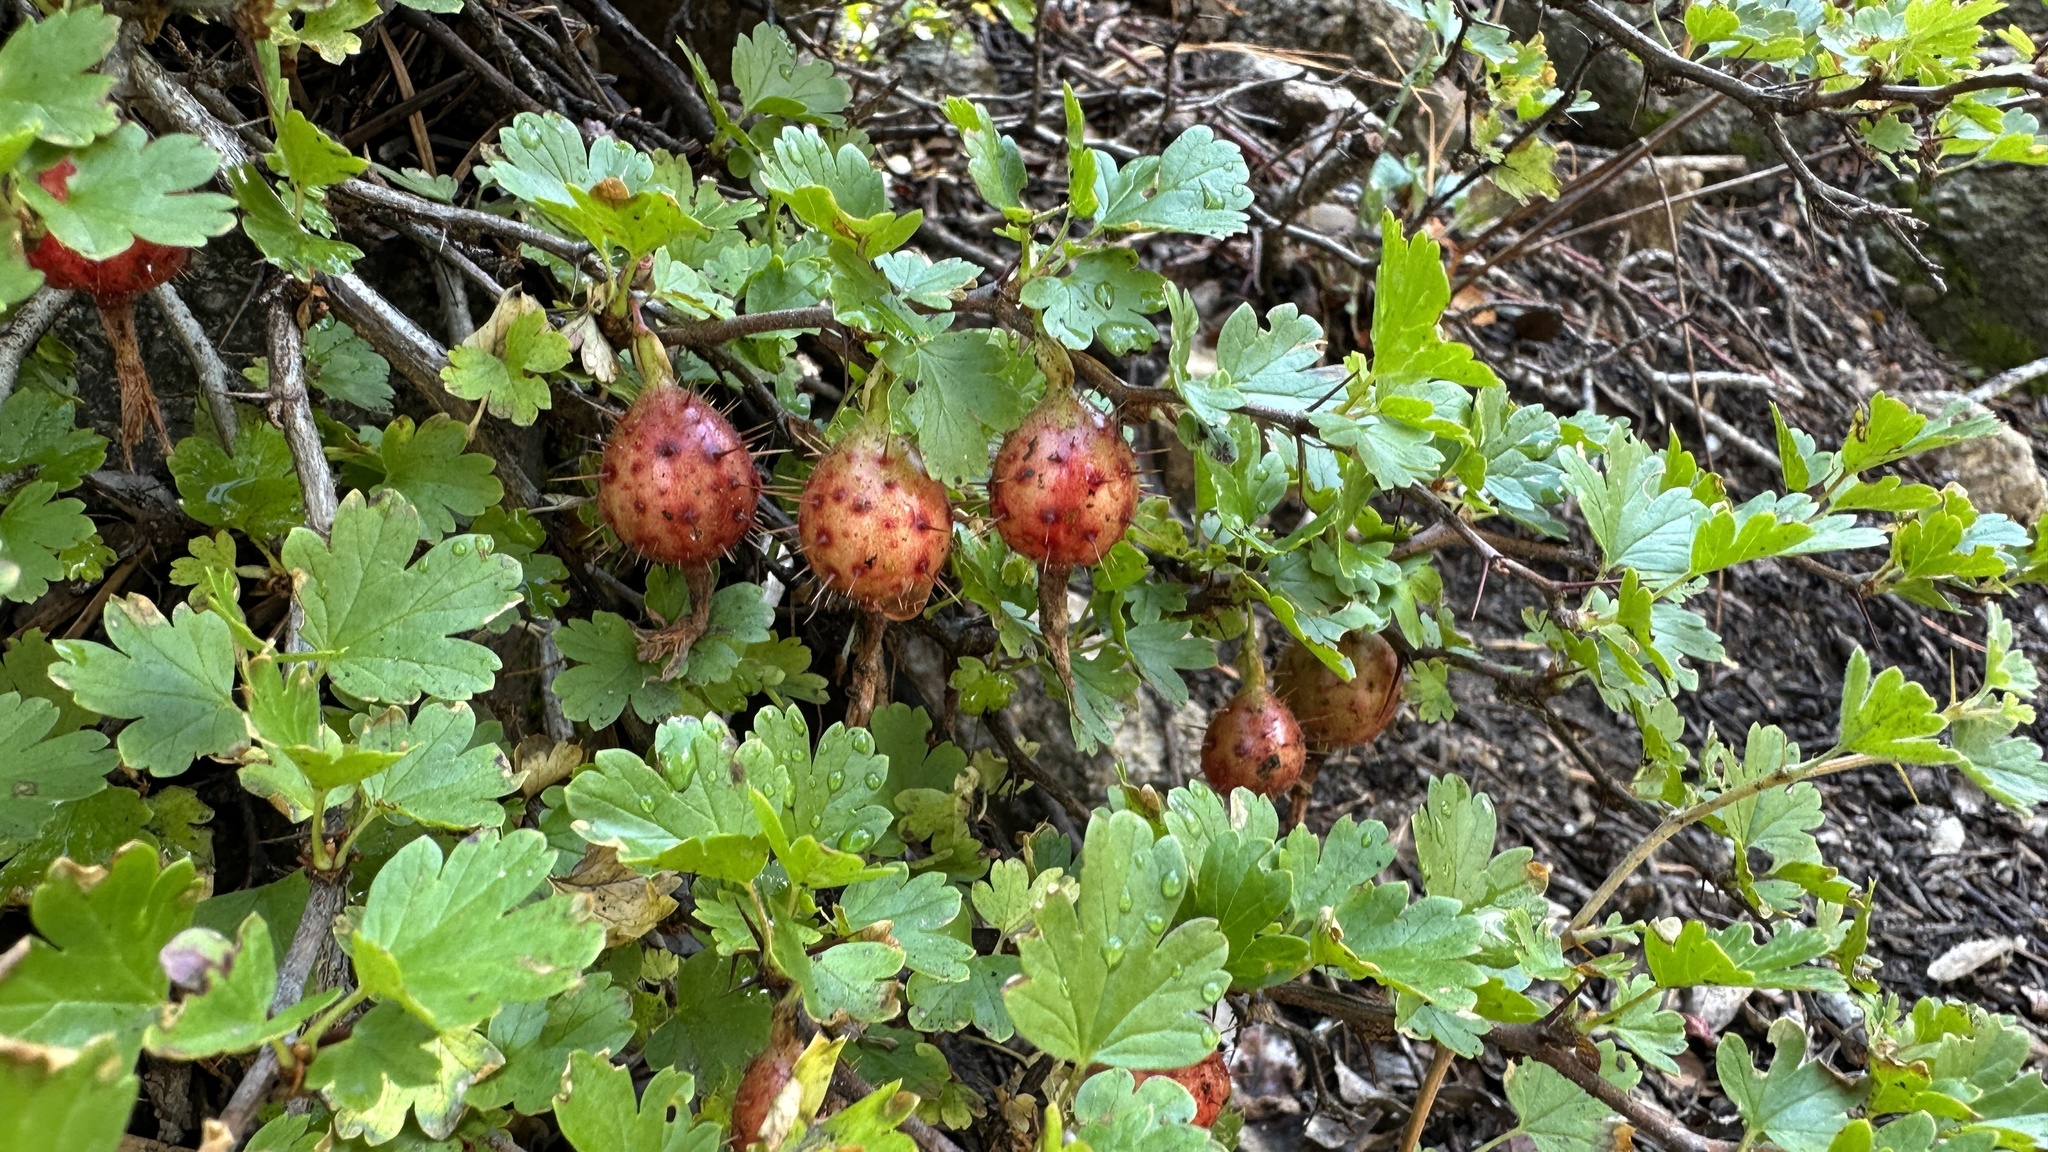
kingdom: Plantae
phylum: Tracheophyta
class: Magnoliopsida
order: Saxifragales
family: Grossulariaceae
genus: Ribes
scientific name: Ribes roezlii
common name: Sierra gooseberry
